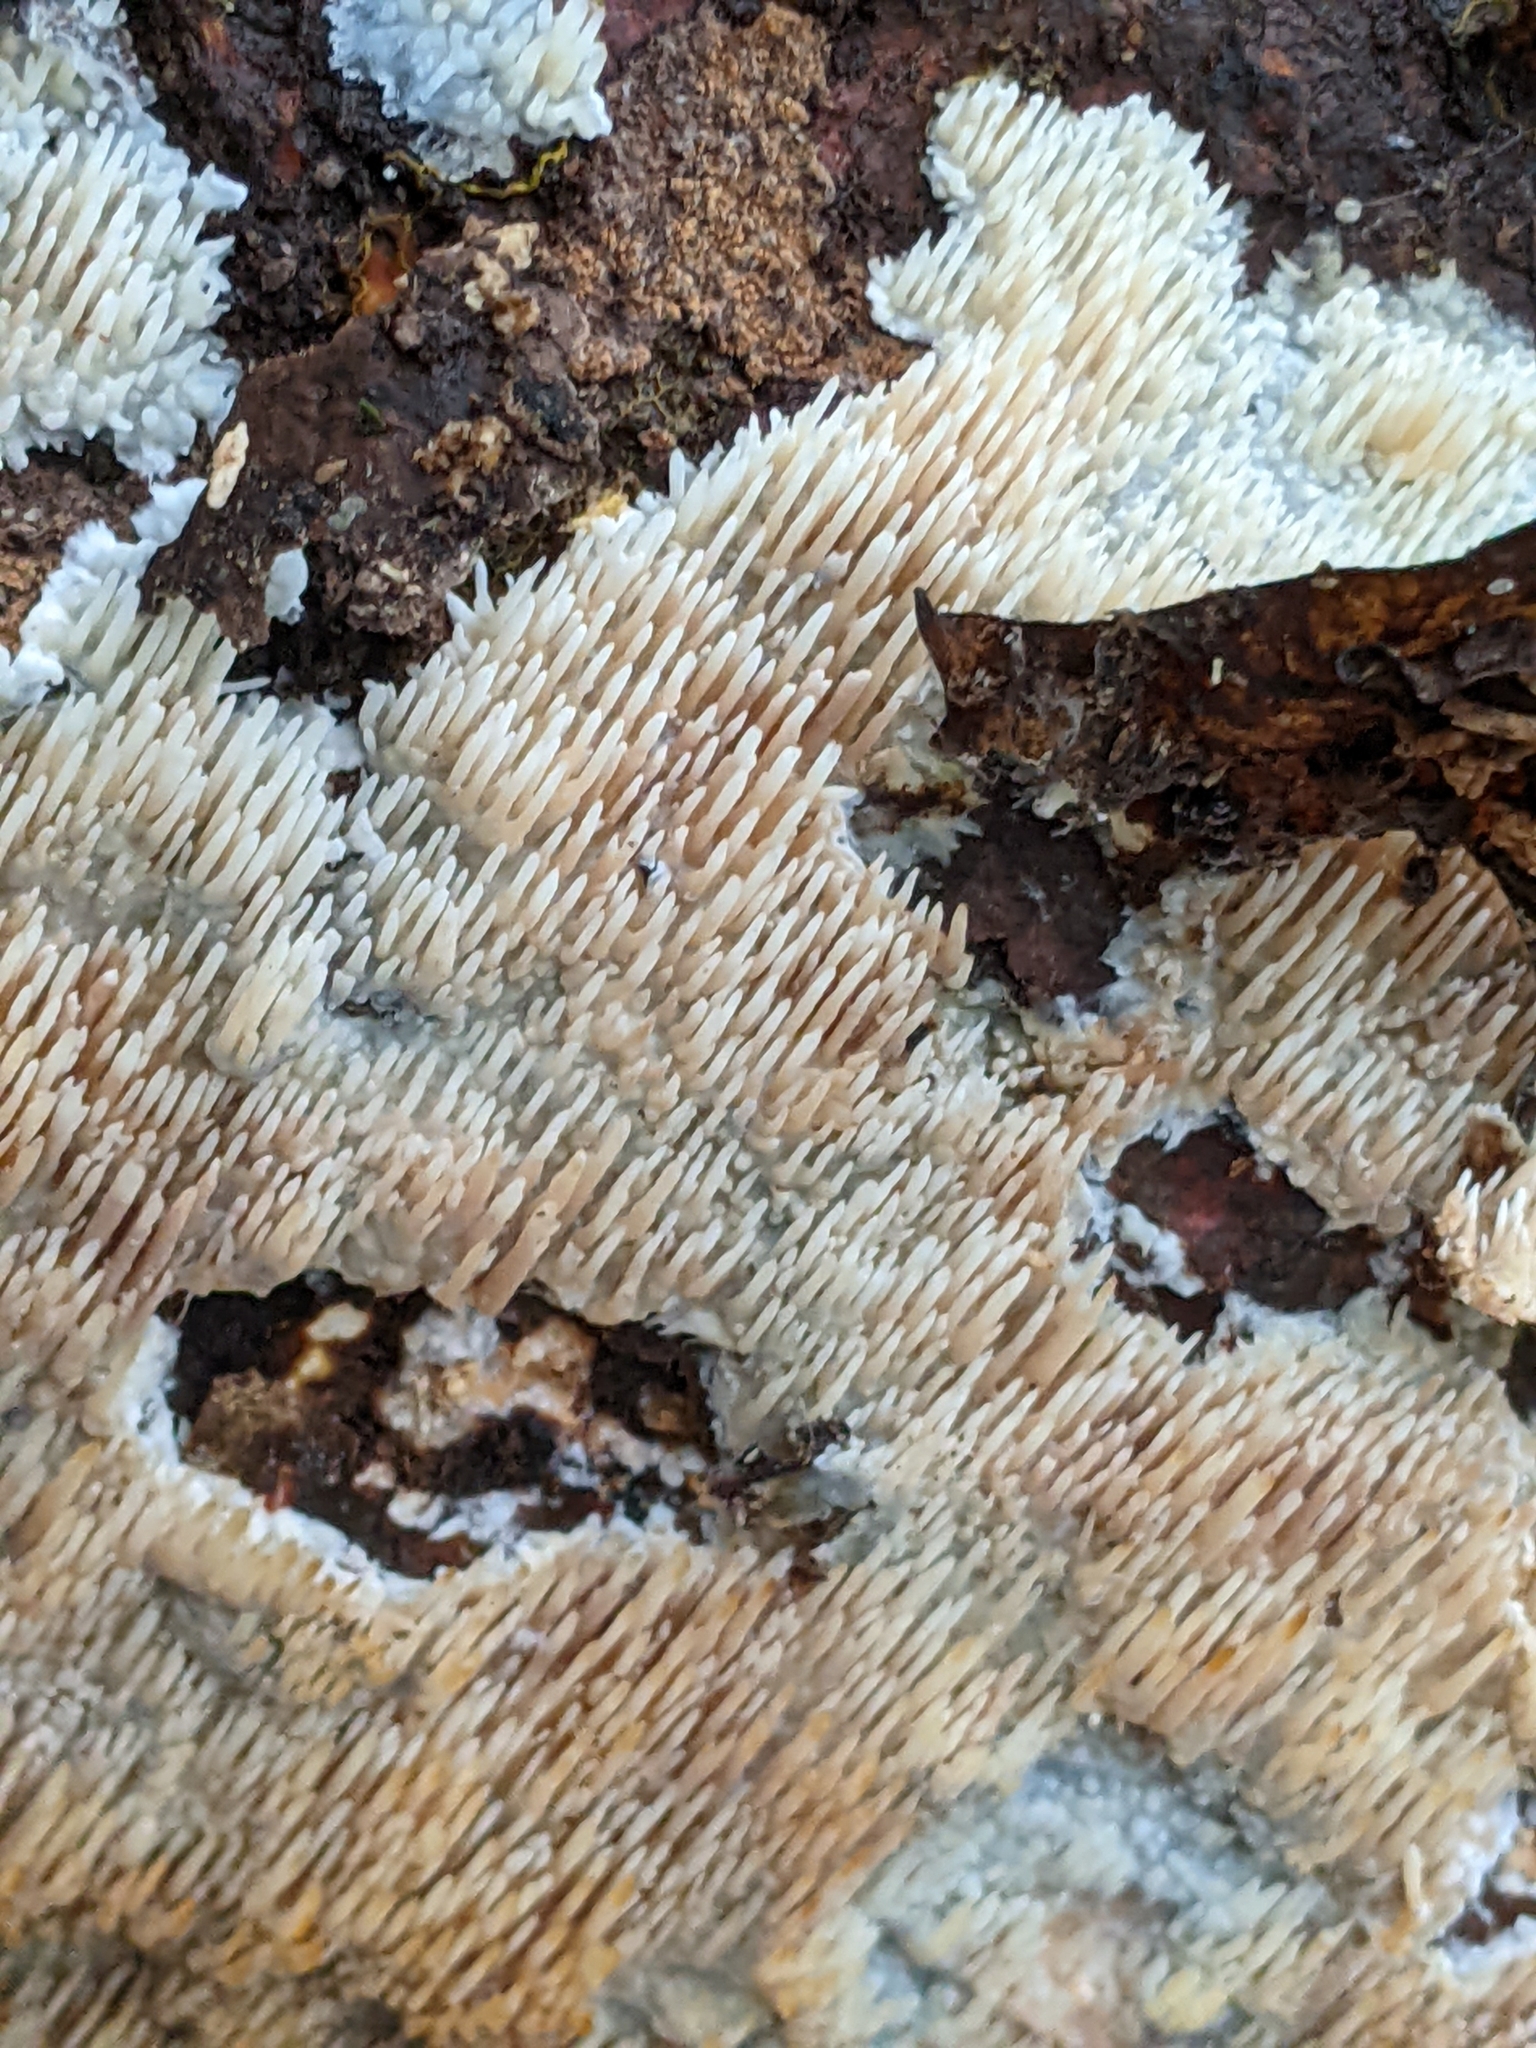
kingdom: Fungi
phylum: Basidiomycota
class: Agaricomycetes
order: Agaricales
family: Radulomycetaceae
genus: Radulomyces
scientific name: Radulomyces copelandii
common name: Asian beauty
